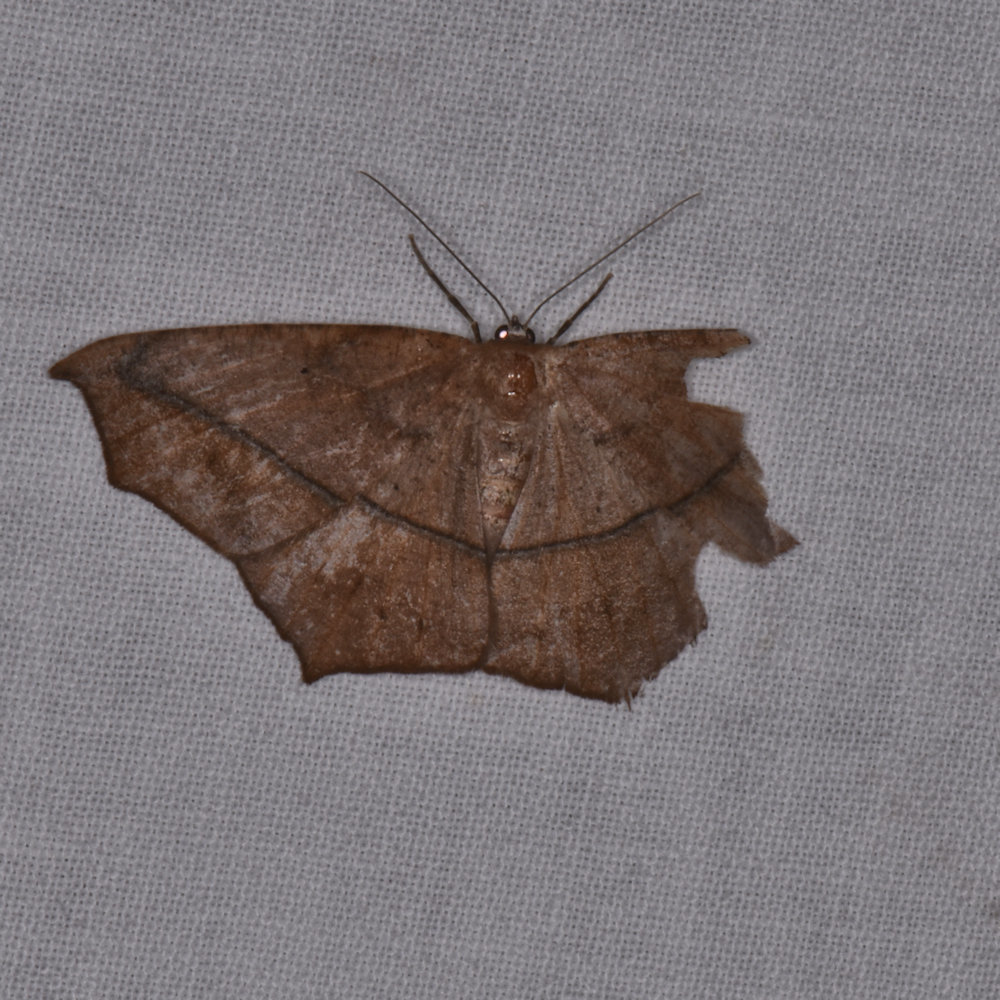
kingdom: Animalia
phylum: Arthropoda
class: Insecta
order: Lepidoptera
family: Geometridae
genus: Prochoerodes
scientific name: Prochoerodes lineola
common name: Large maple spanworm
